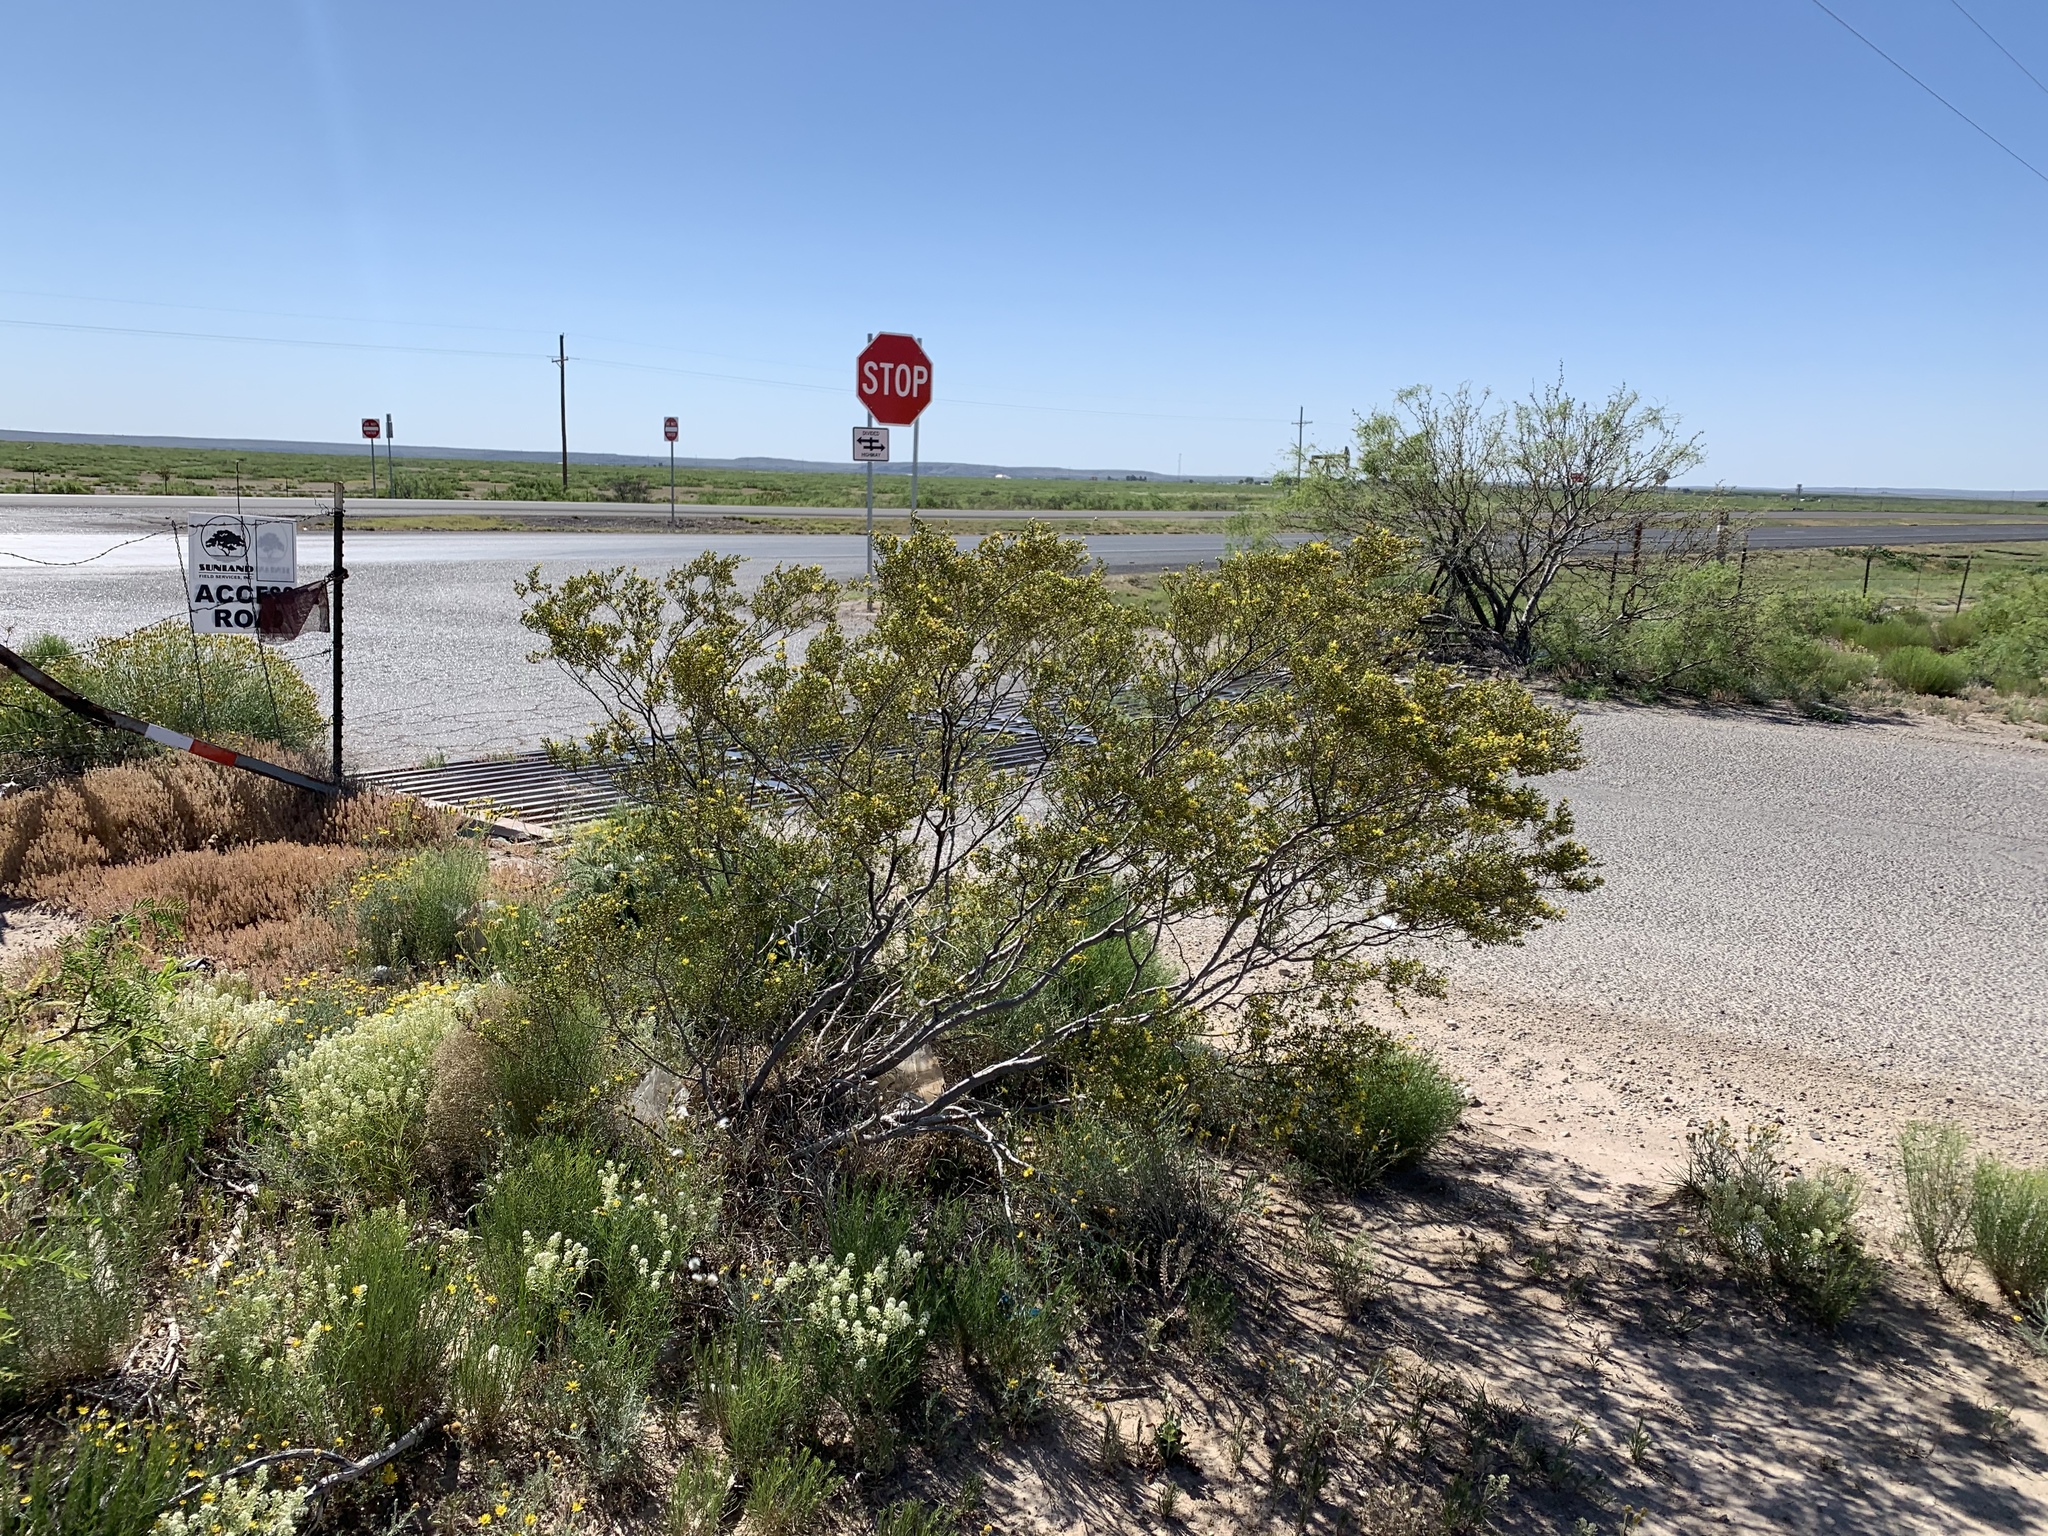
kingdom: Plantae
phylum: Tracheophyta
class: Magnoliopsida
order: Zygophyllales
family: Zygophyllaceae
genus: Larrea
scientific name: Larrea tridentata
